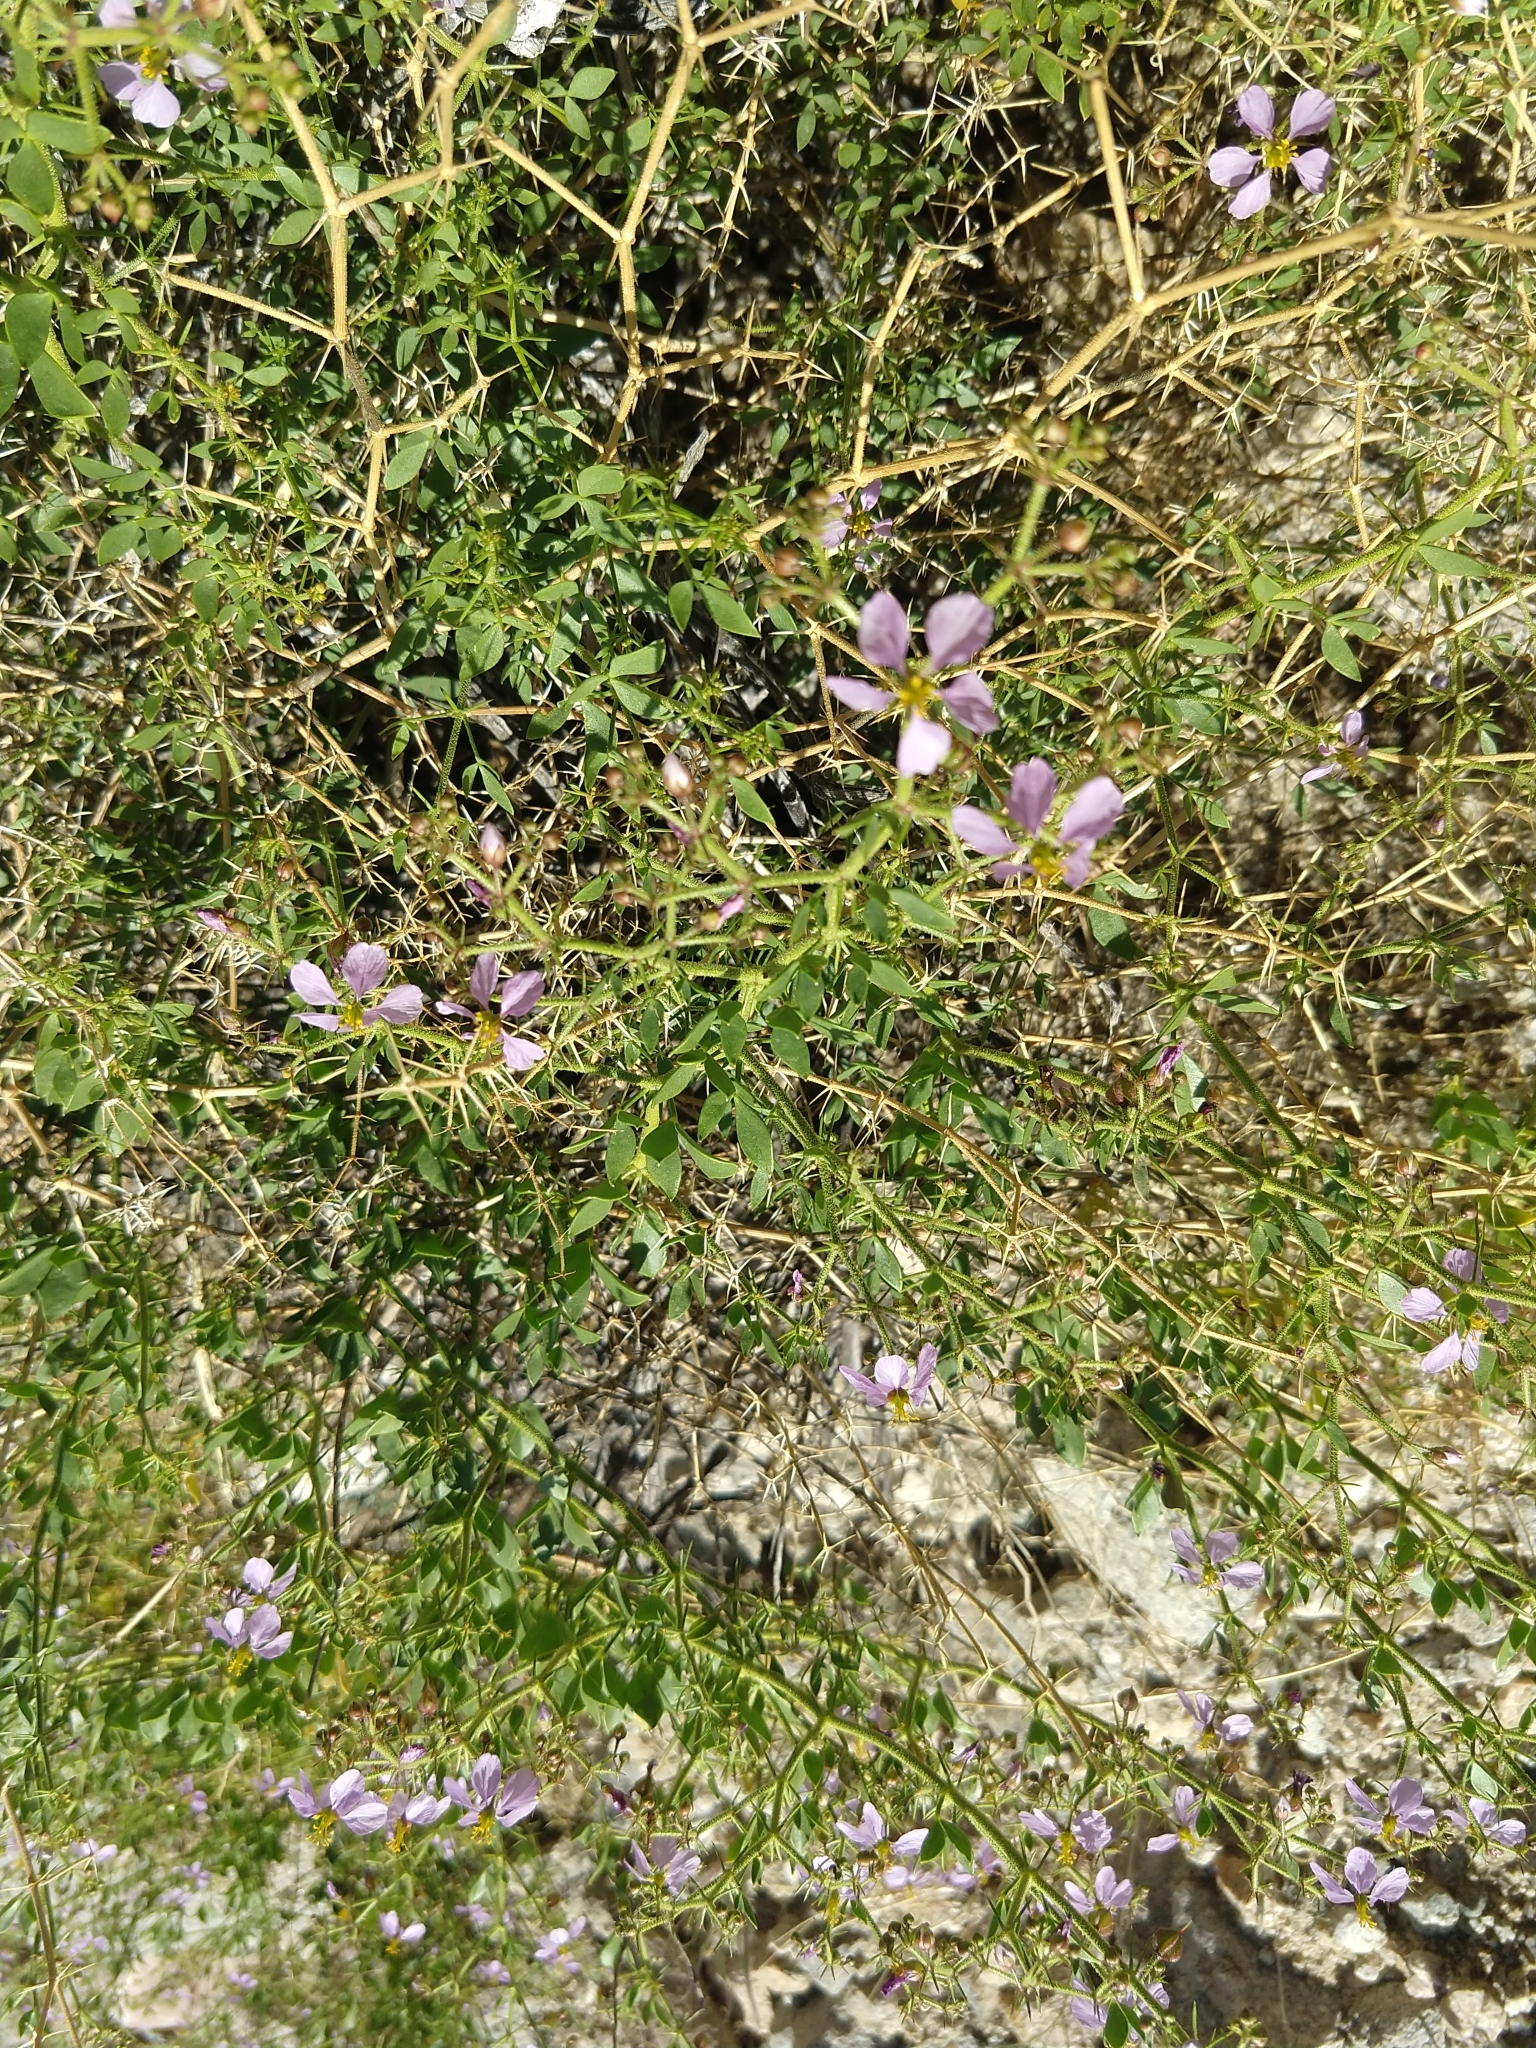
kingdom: Plantae
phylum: Tracheophyta
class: Magnoliopsida
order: Zygophyllales
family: Zygophyllaceae
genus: Fagonia
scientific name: Fagonia laevis
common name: California fagonbush
